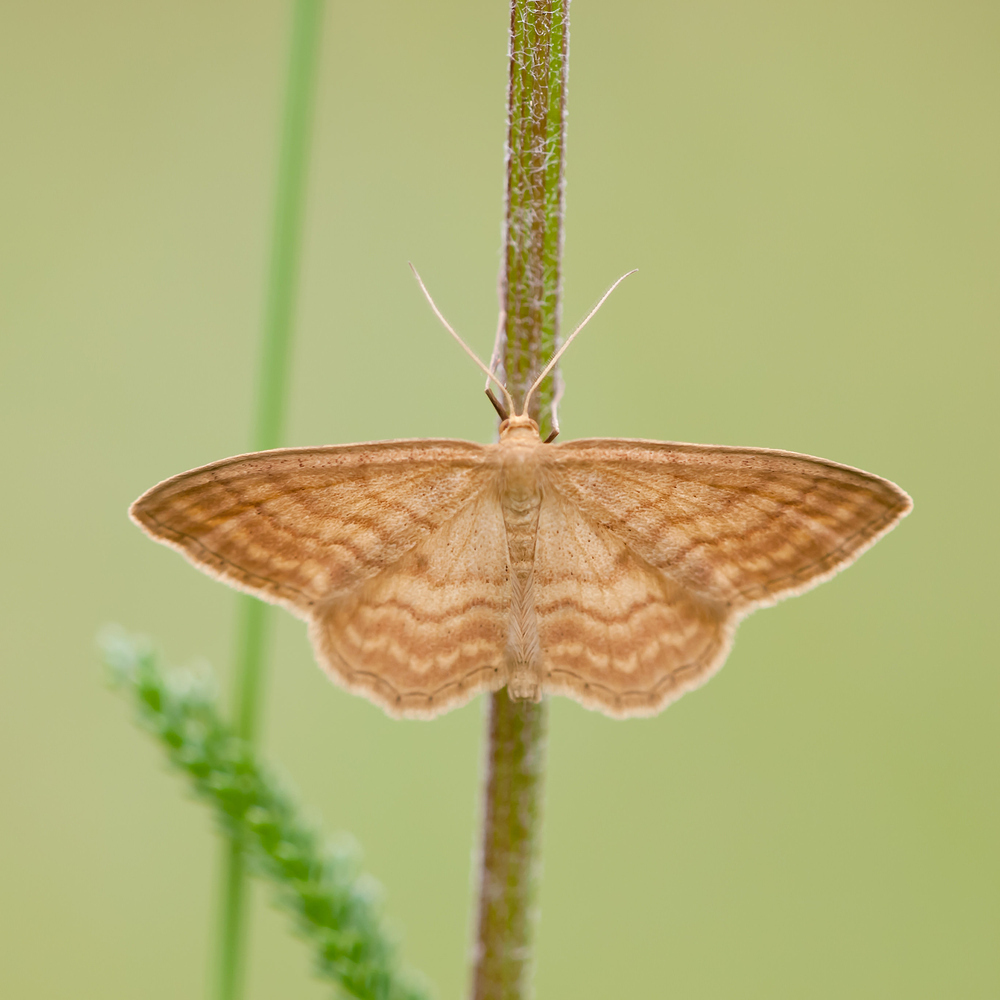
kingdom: Animalia
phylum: Arthropoda
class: Insecta
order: Lepidoptera
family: Geometridae
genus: Idaea
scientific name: Idaea ochrata
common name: Bright wave
